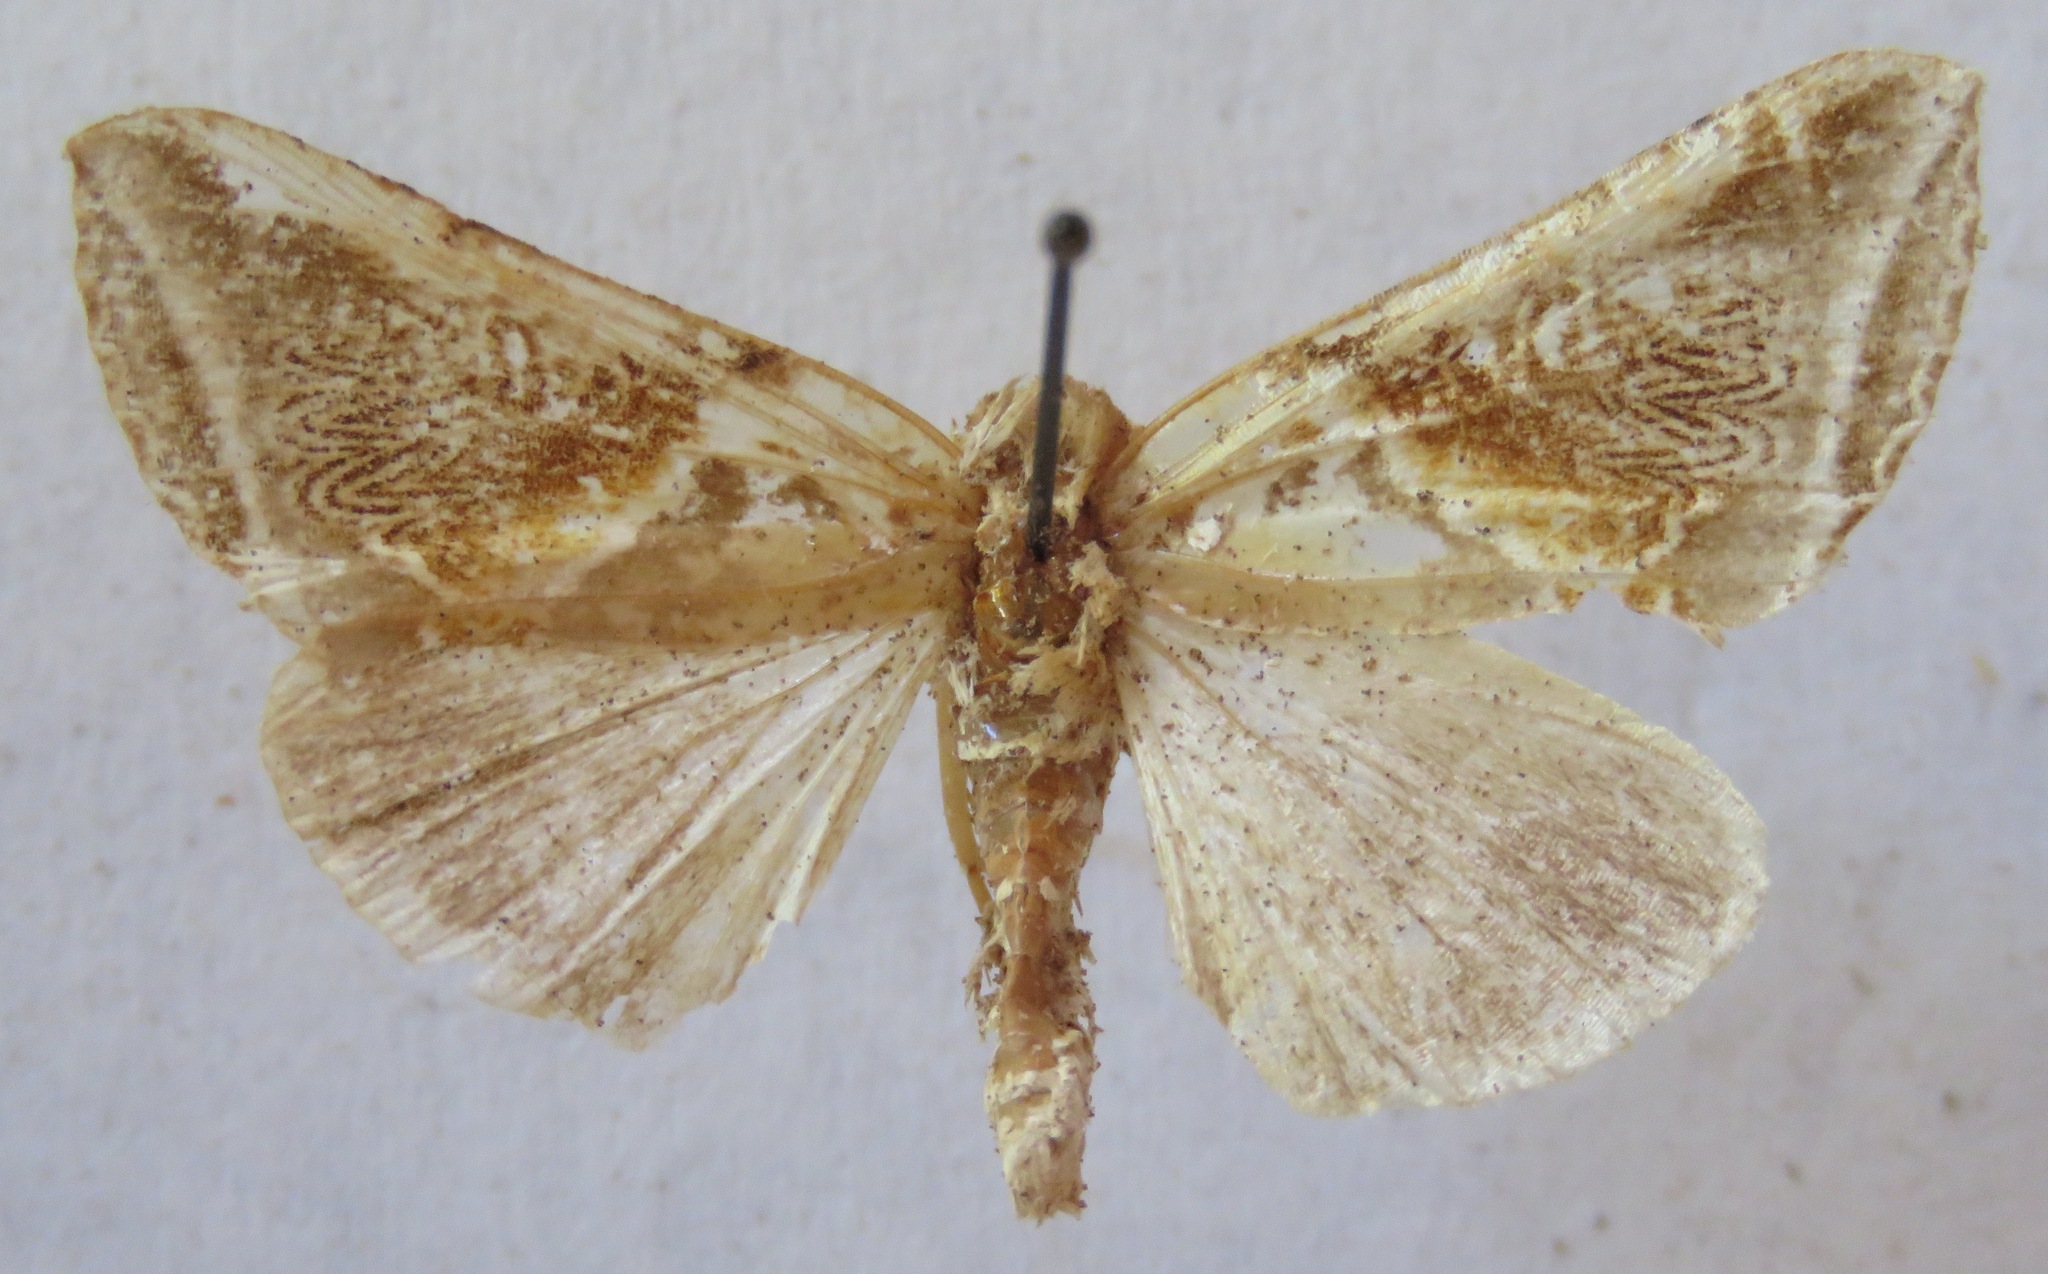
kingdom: Animalia
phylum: Arthropoda
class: Insecta
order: Lepidoptera
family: Drepanidae
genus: Habrosyne
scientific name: Habrosyne pyritoides
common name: Buff arches
